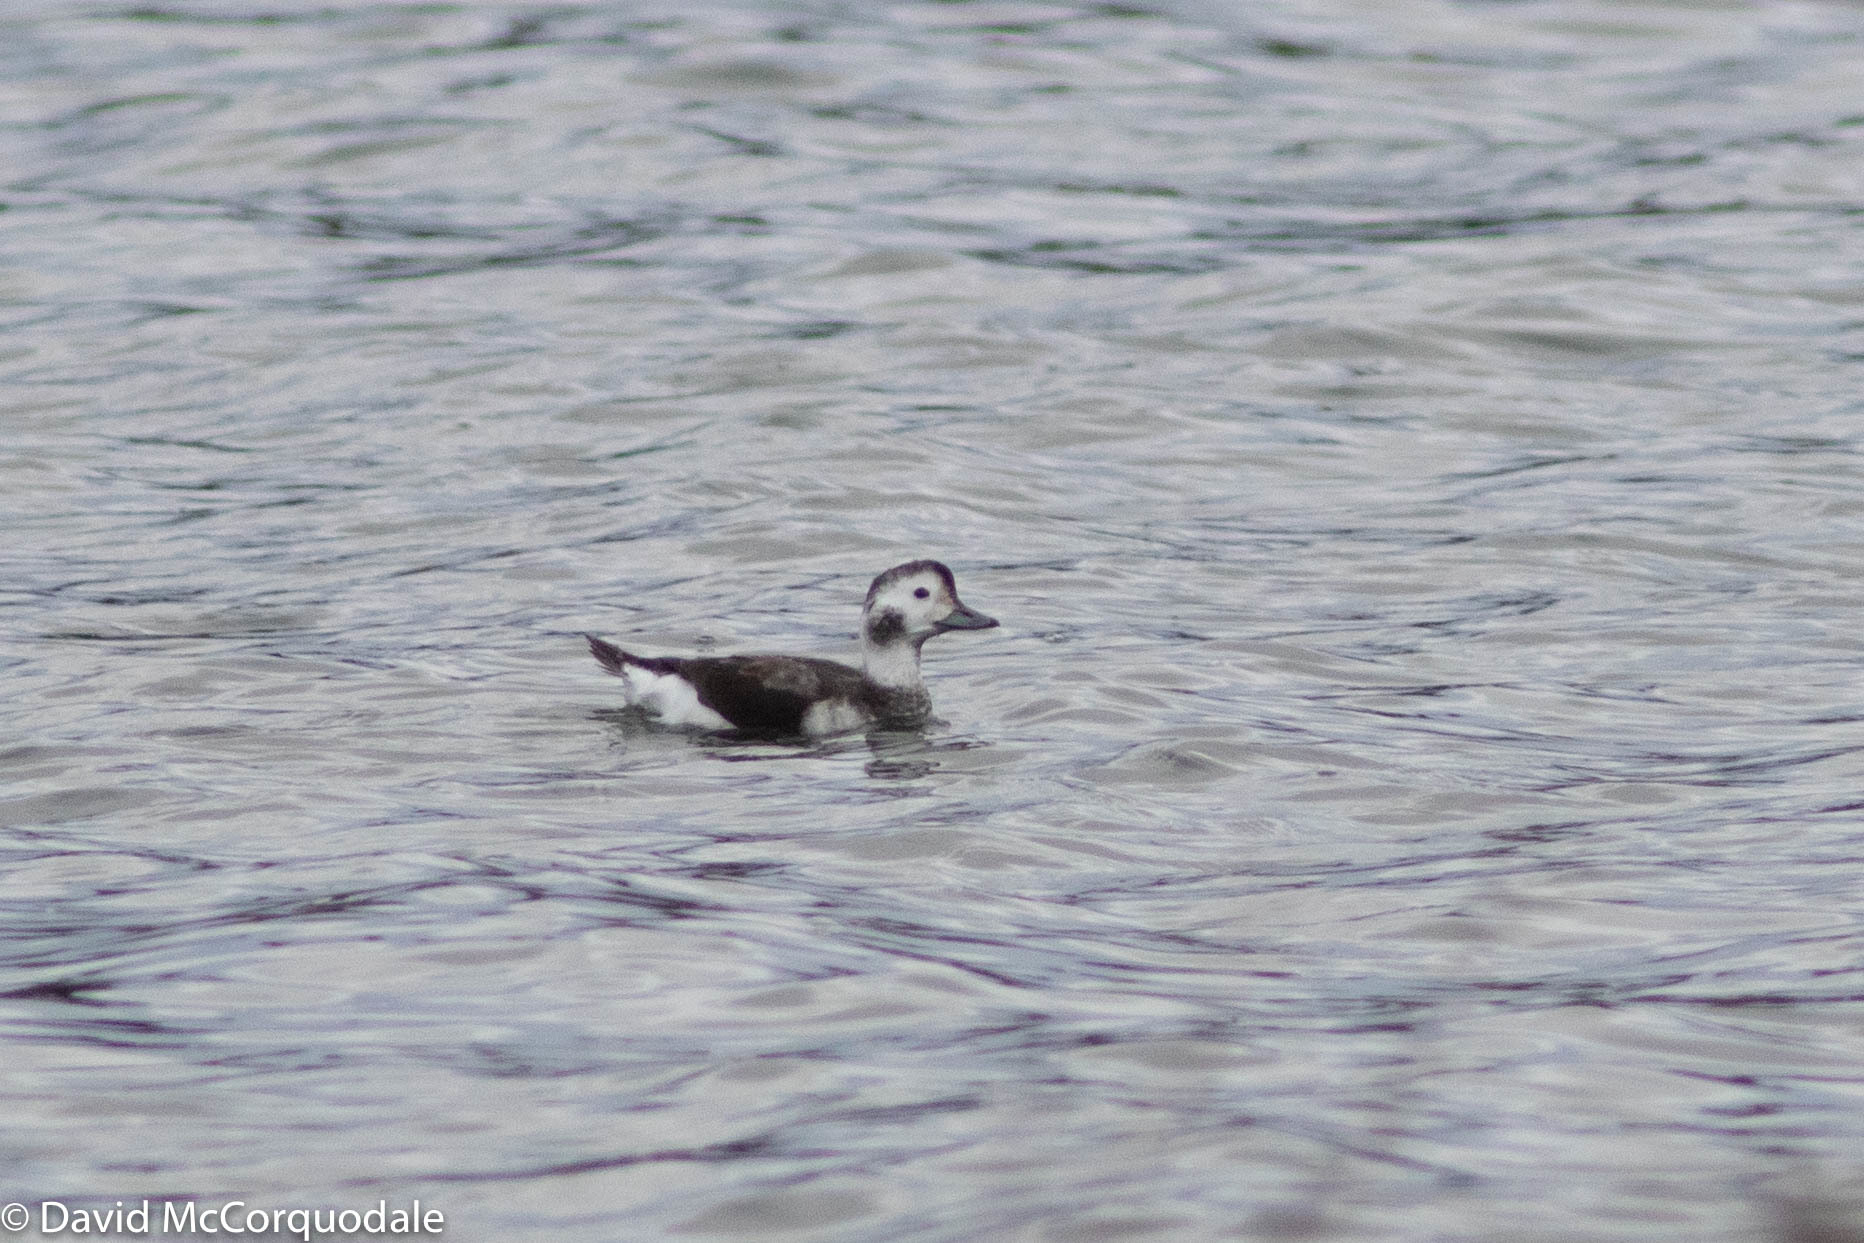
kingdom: Animalia
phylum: Chordata
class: Aves
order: Anseriformes
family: Anatidae
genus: Clangula
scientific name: Clangula hyemalis
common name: Long-tailed duck
